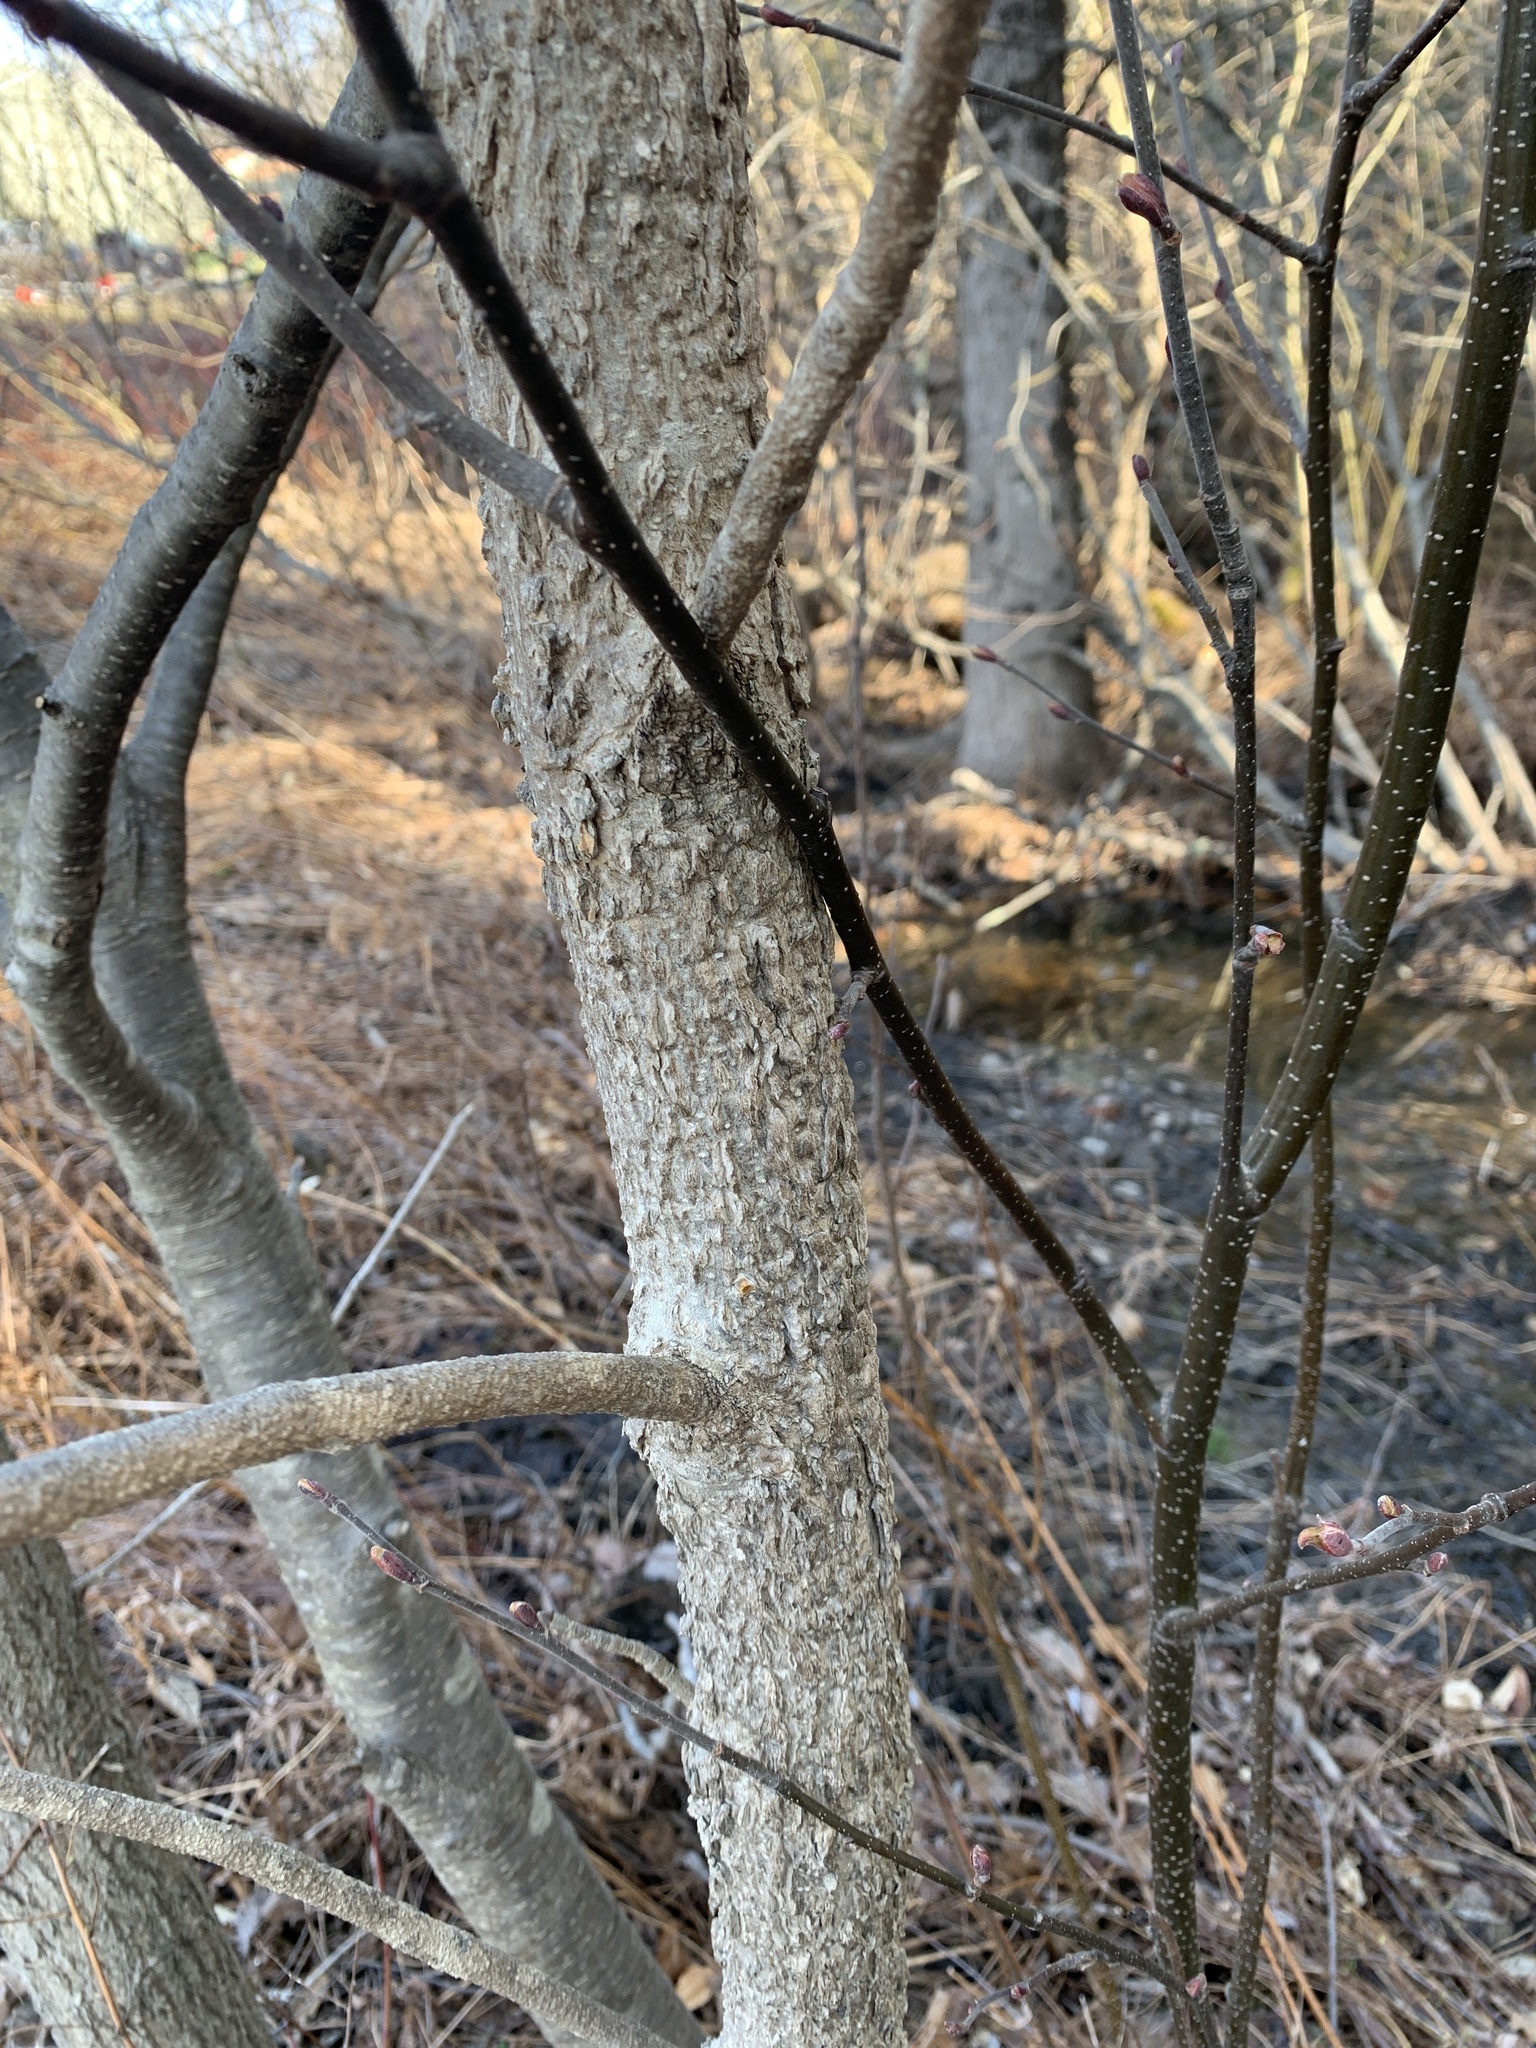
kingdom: Plantae
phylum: Tracheophyta
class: Magnoliopsida
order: Lamiales
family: Oleaceae
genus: Fraxinus
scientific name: Fraxinus nigra
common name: Black ash
